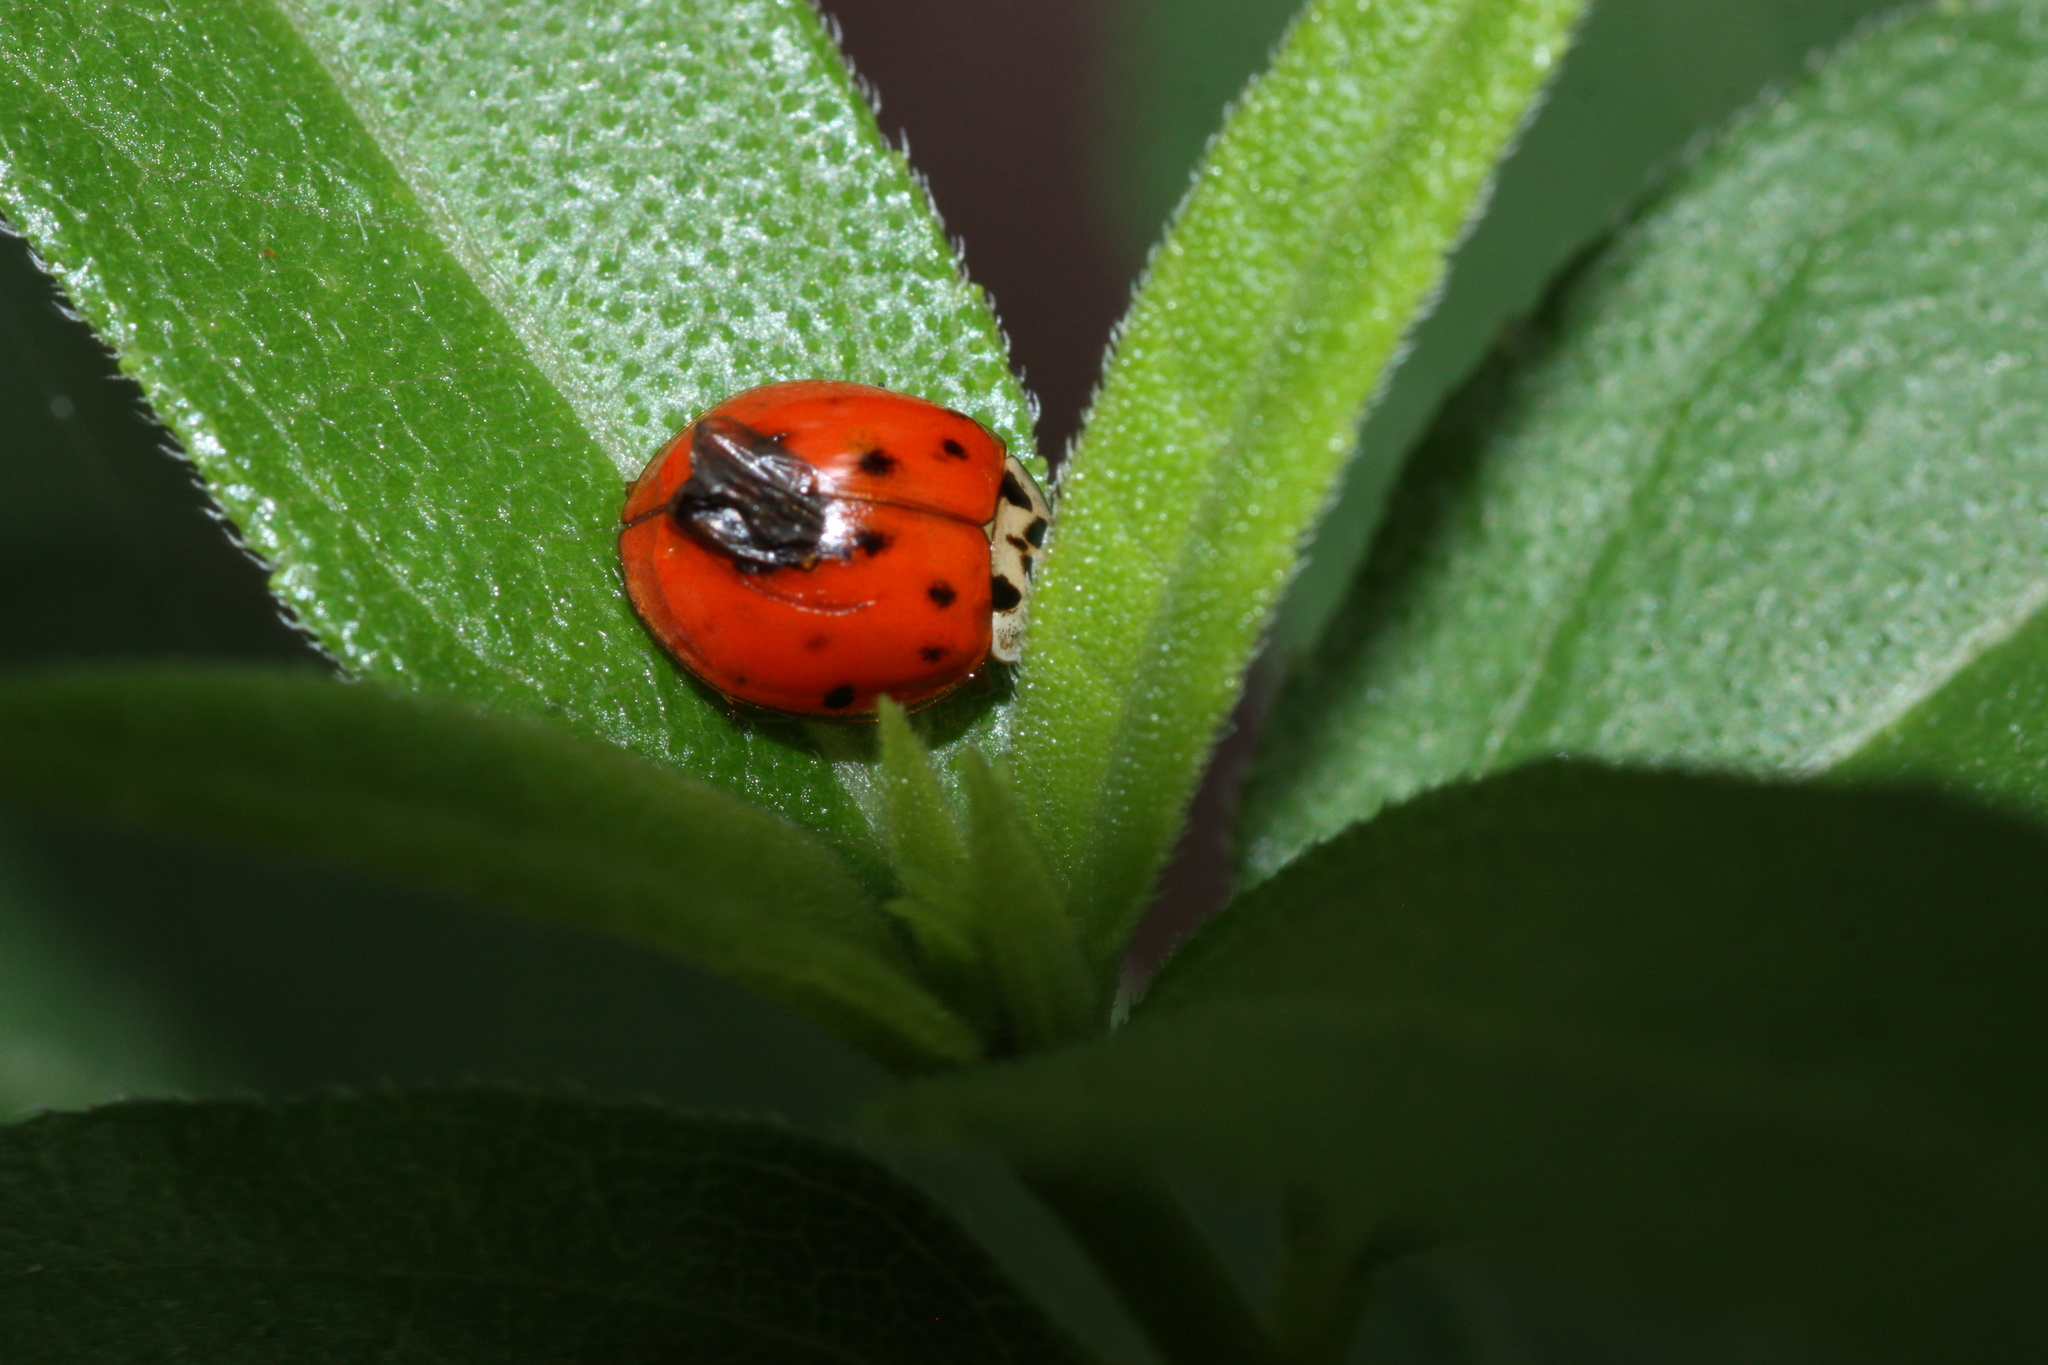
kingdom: Animalia
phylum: Arthropoda
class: Insecta
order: Coleoptera
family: Coccinellidae
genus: Harmonia
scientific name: Harmonia axyridis
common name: Harlequin ladybird
